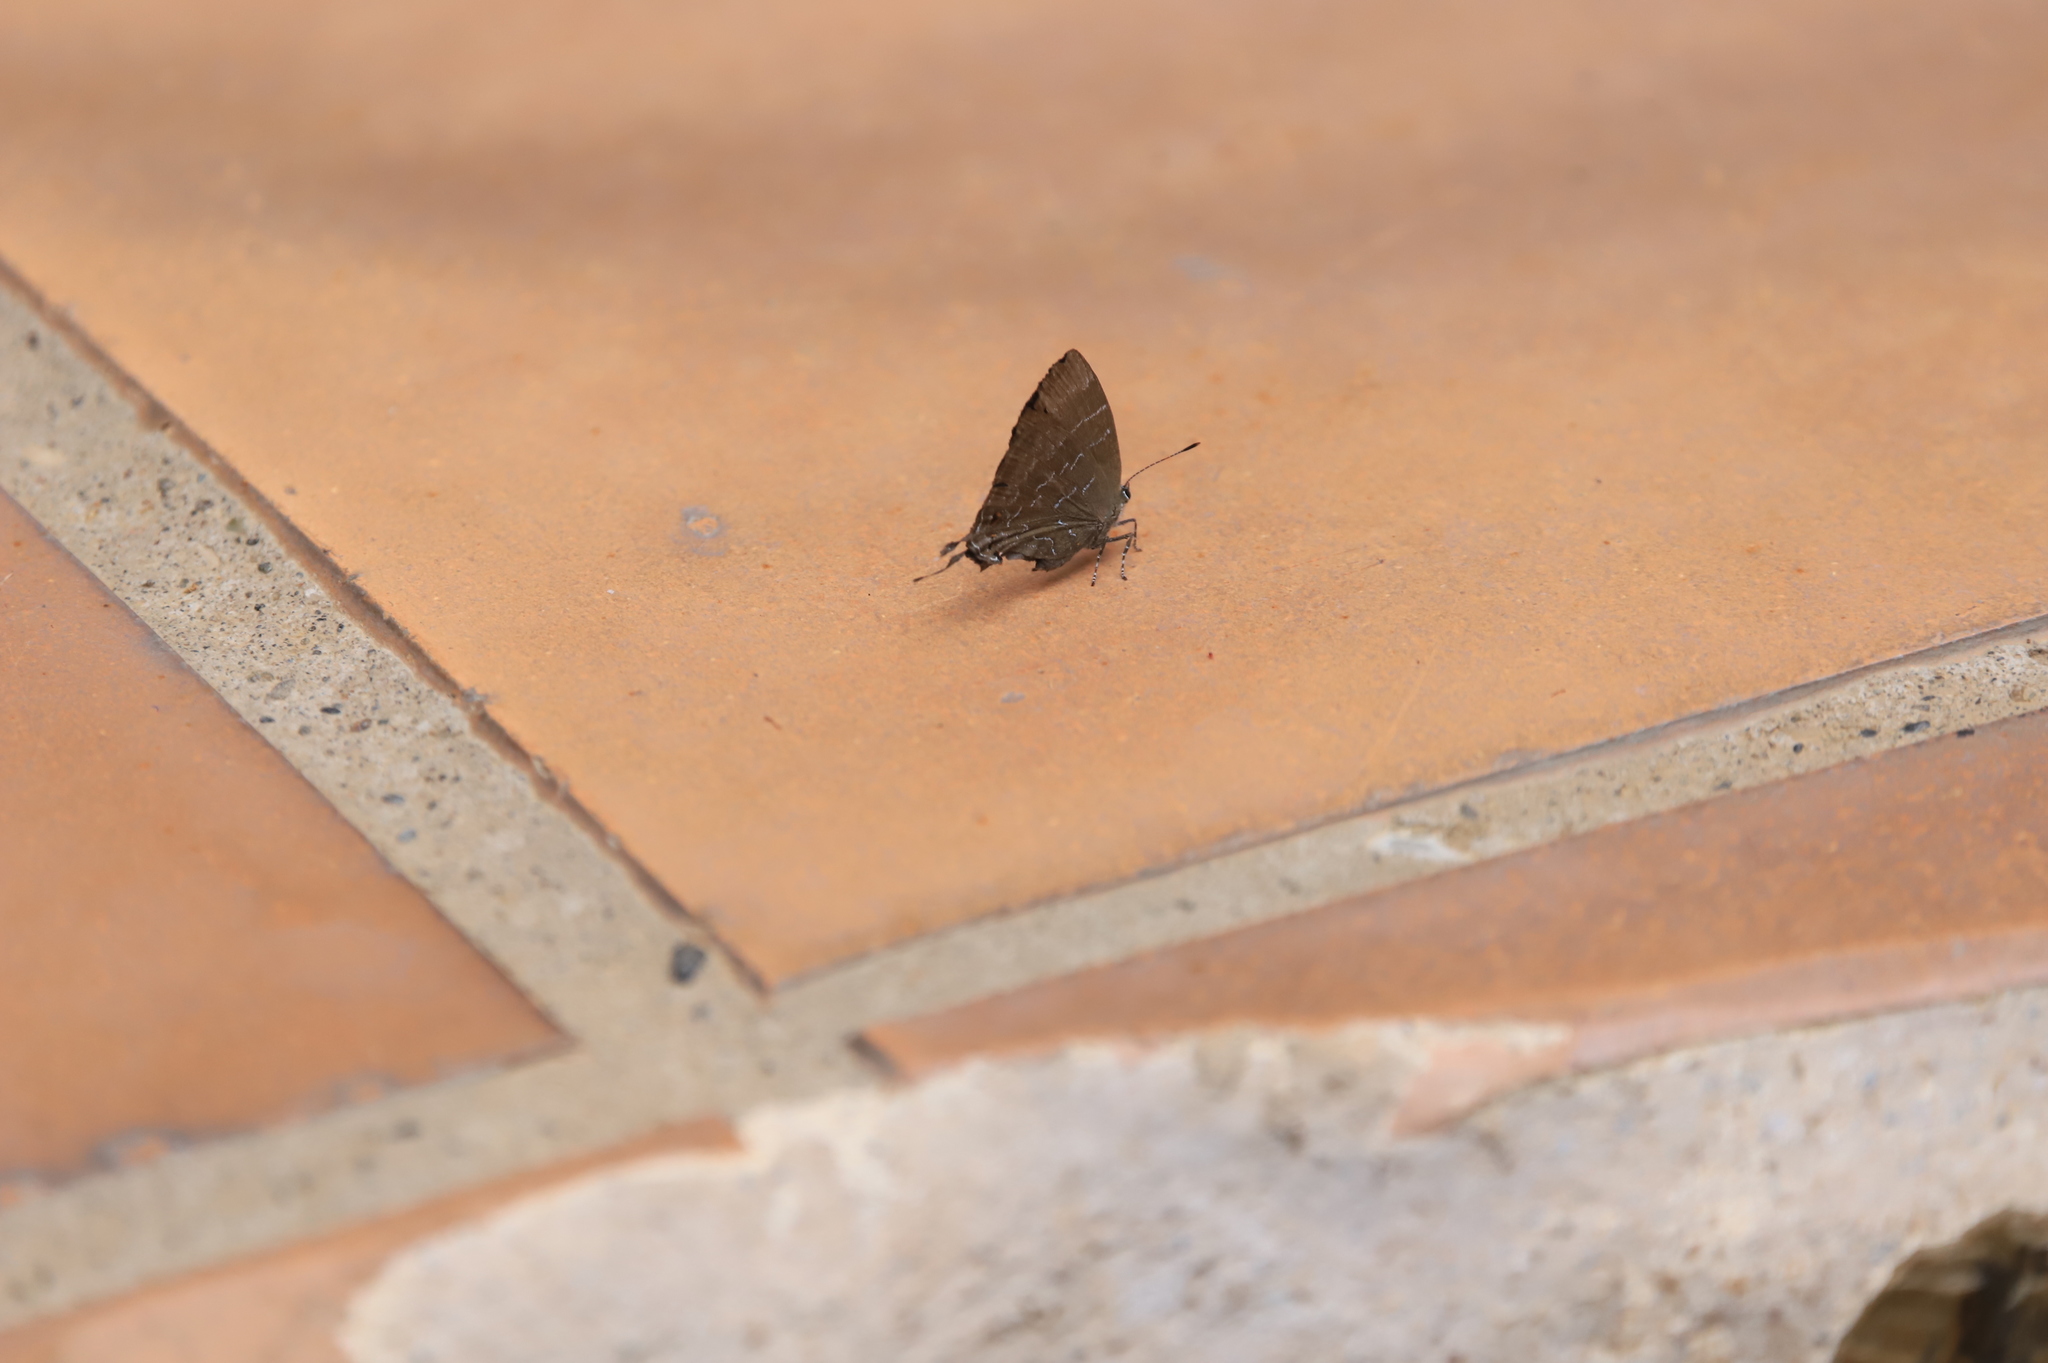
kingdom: Animalia
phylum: Arthropoda
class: Insecta
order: Lepidoptera
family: Lycaenidae
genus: Johnsonita
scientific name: Johnsonita carpia
